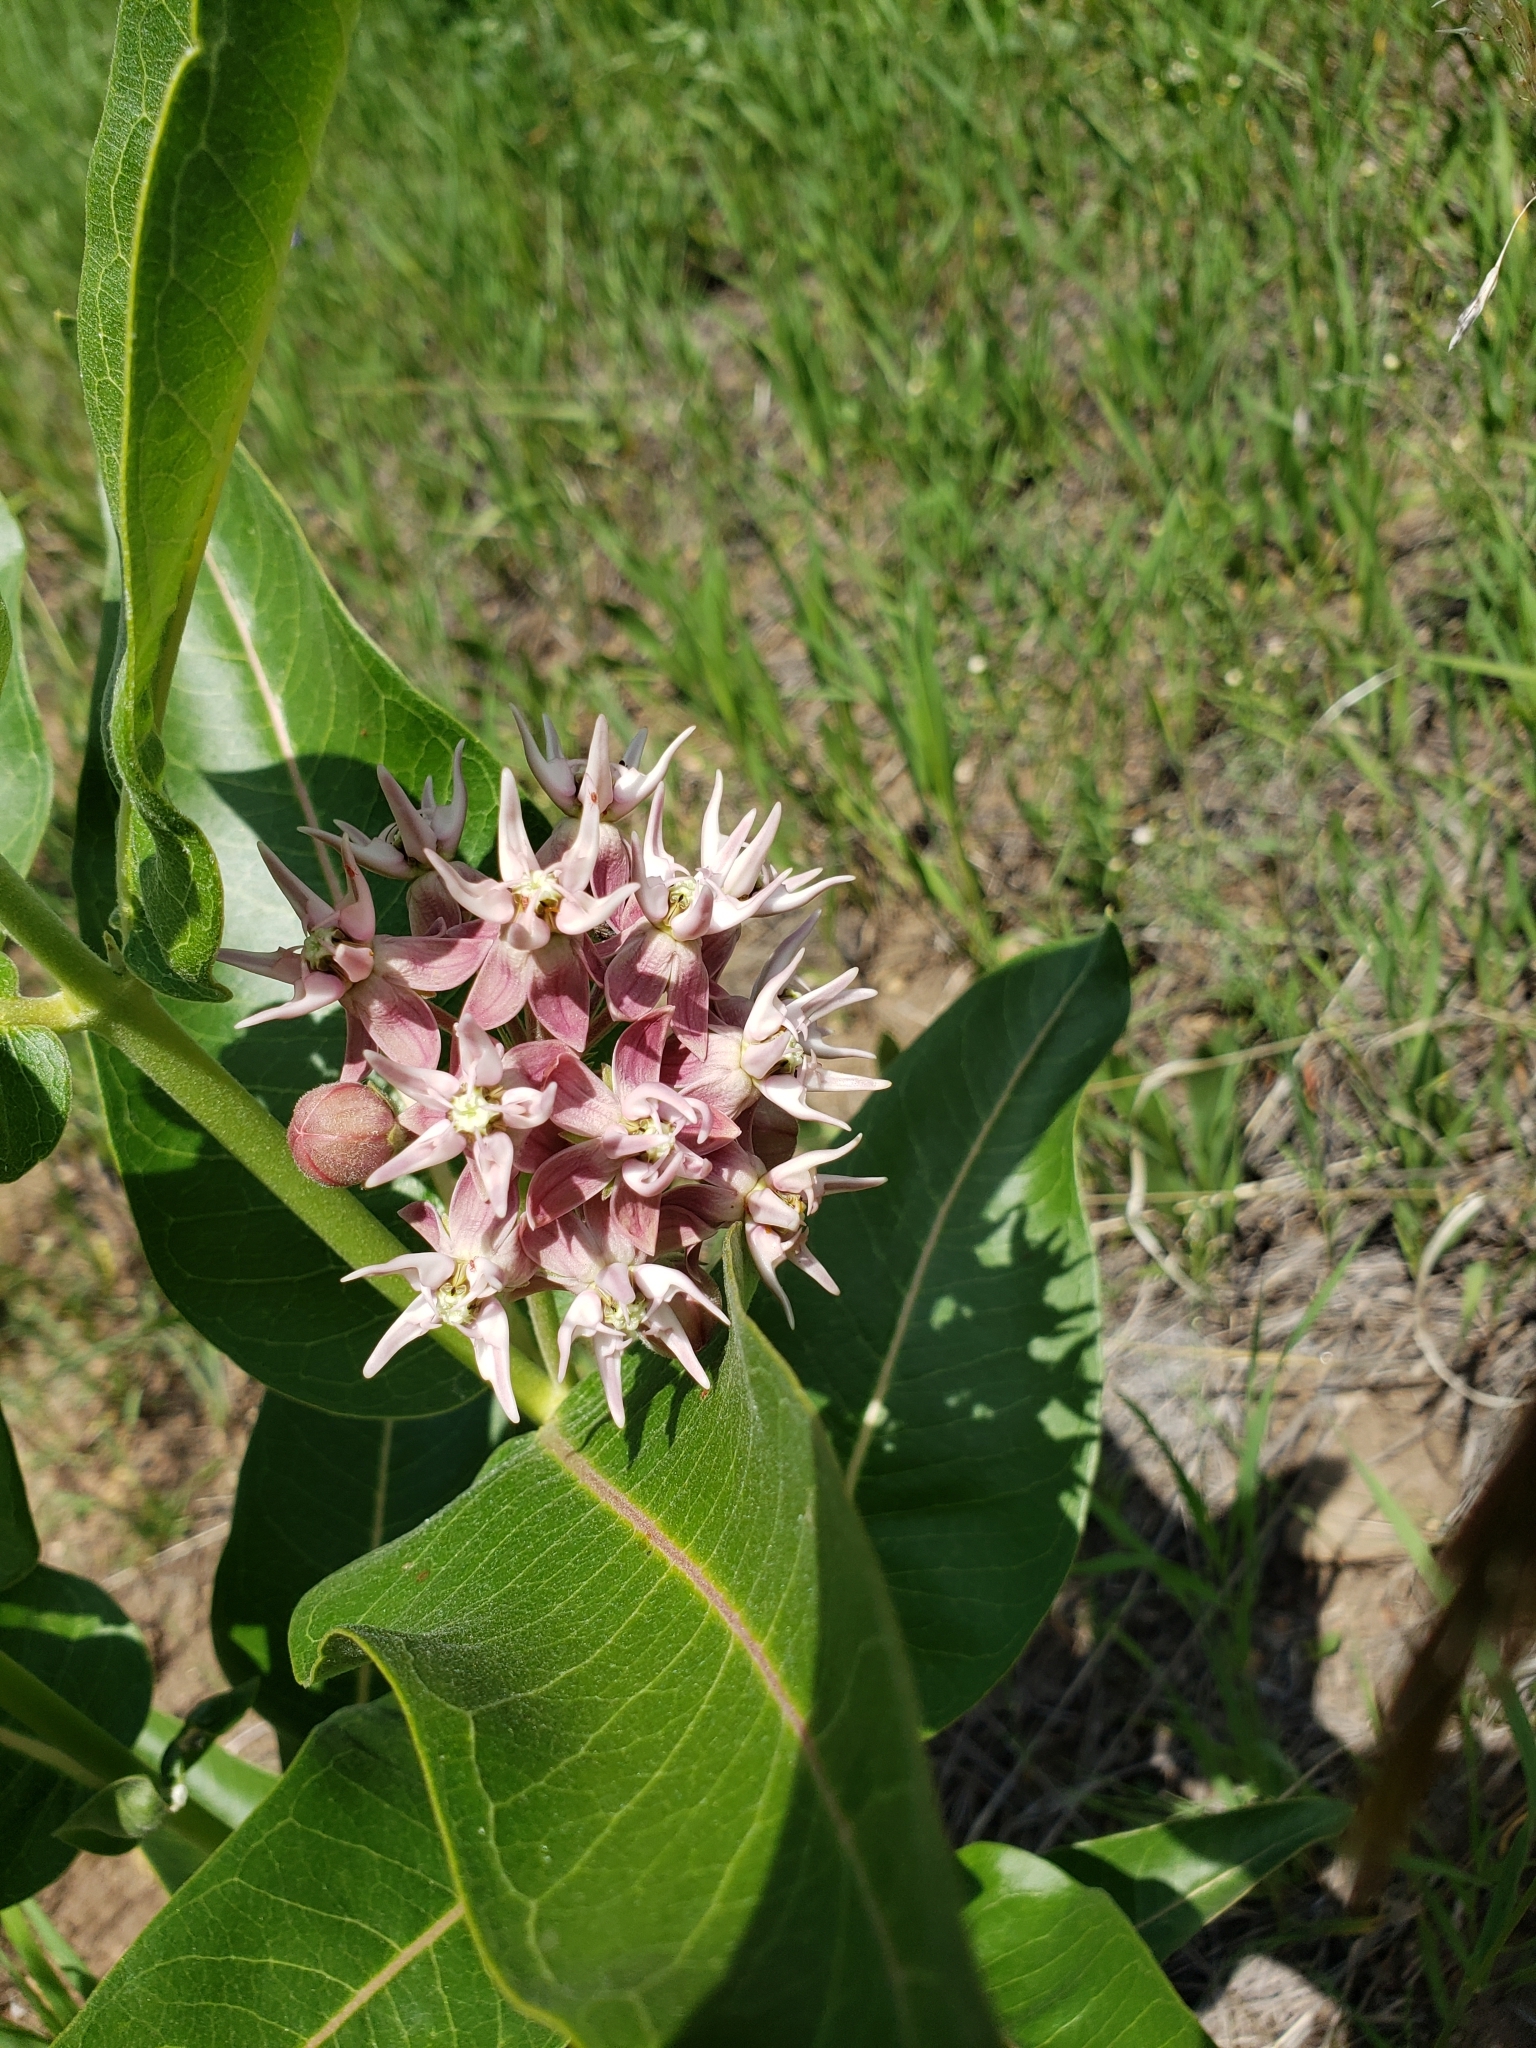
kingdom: Plantae
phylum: Tracheophyta
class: Magnoliopsida
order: Gentianales
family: Apocynaceae
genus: Asclepias
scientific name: Asclepias speciosa
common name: Showy milkweed
